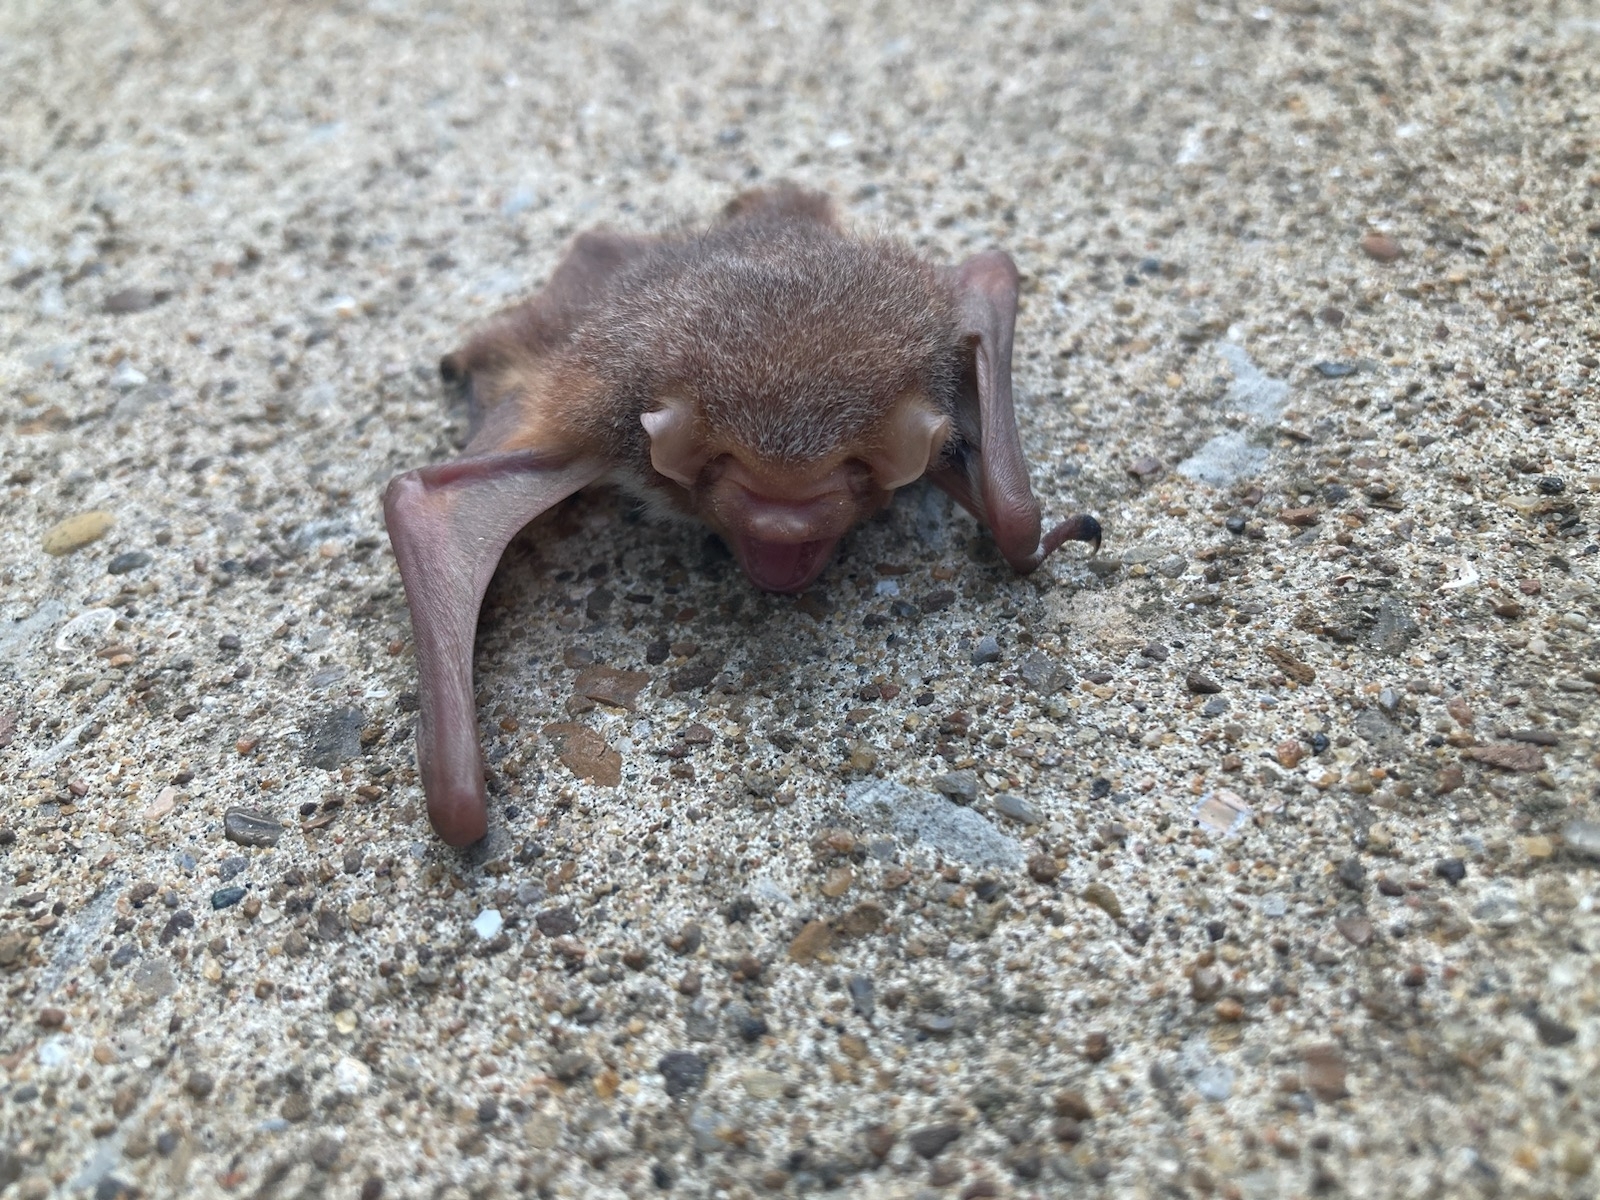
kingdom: Animalia
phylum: Chordata
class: Mammalia
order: Chiroptera
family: Vespertilionidae
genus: Lasiurus
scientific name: Lasiurus borealis
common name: Eastern red bat
